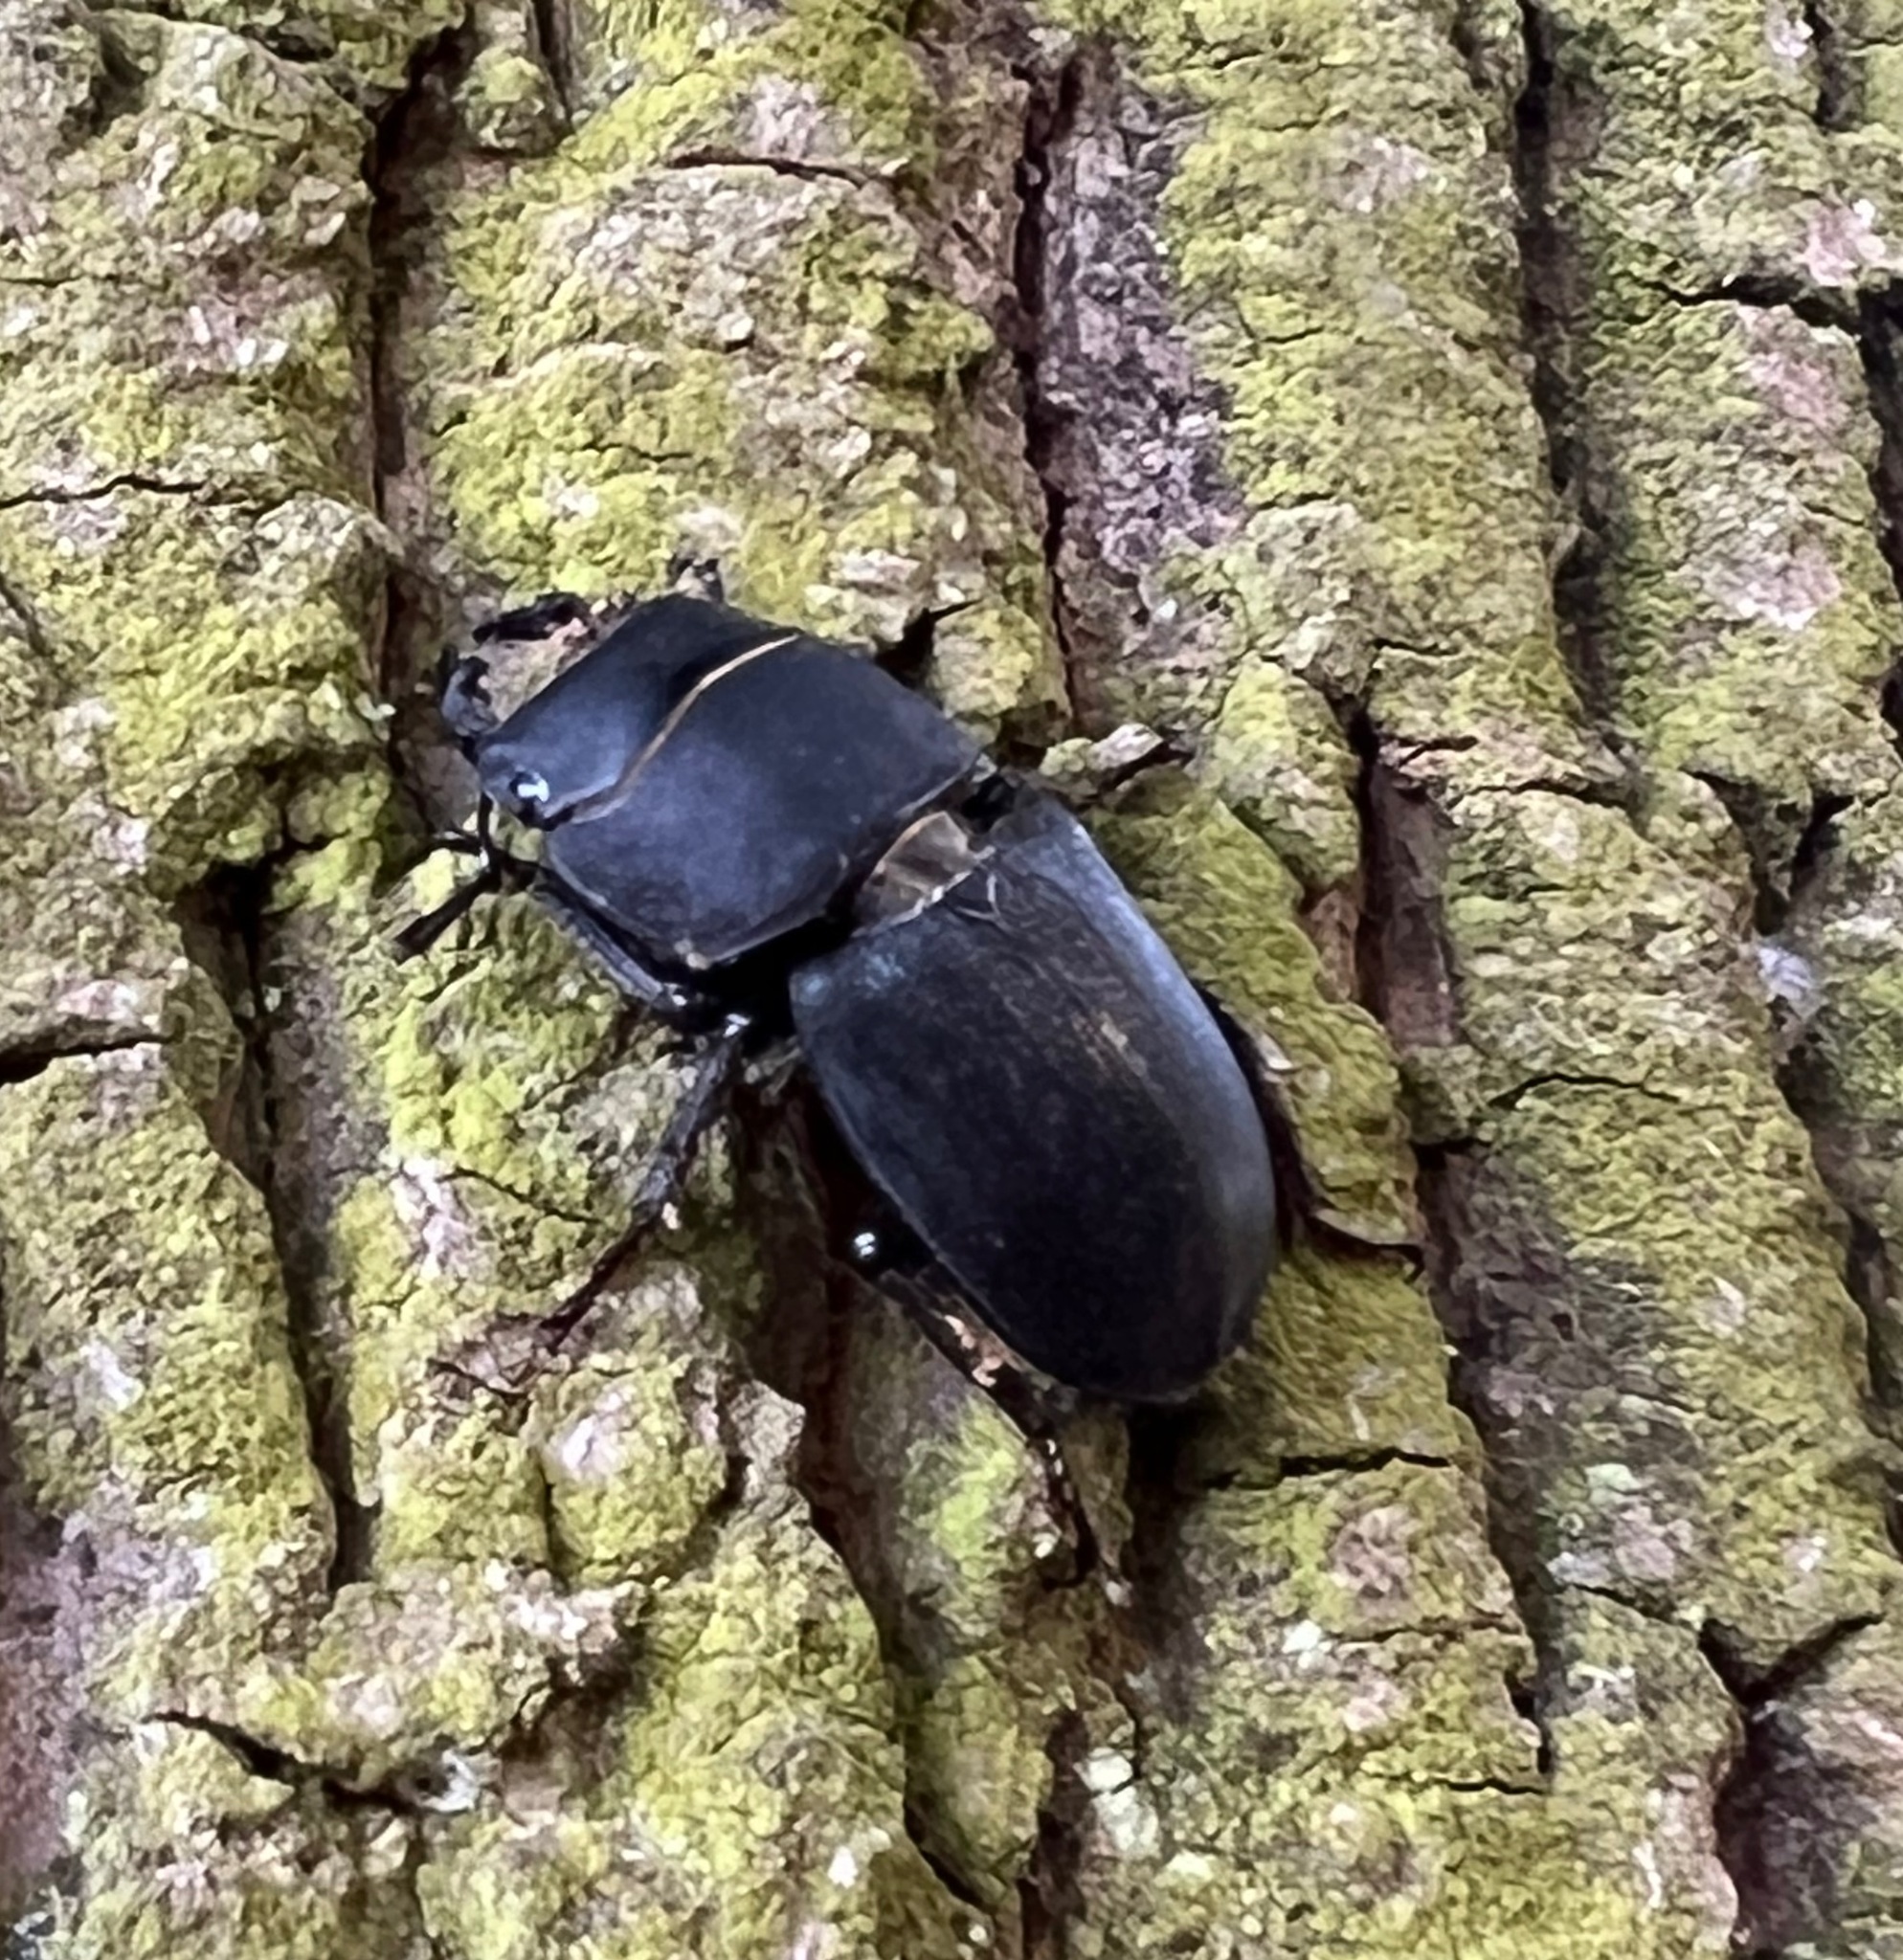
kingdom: Animalia
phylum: Arthropoda
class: Insecta
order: Coleoptera
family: Lucanidae
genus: Dorcus
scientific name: Dorcus parallelipipedus
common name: Lesser stag beetle
